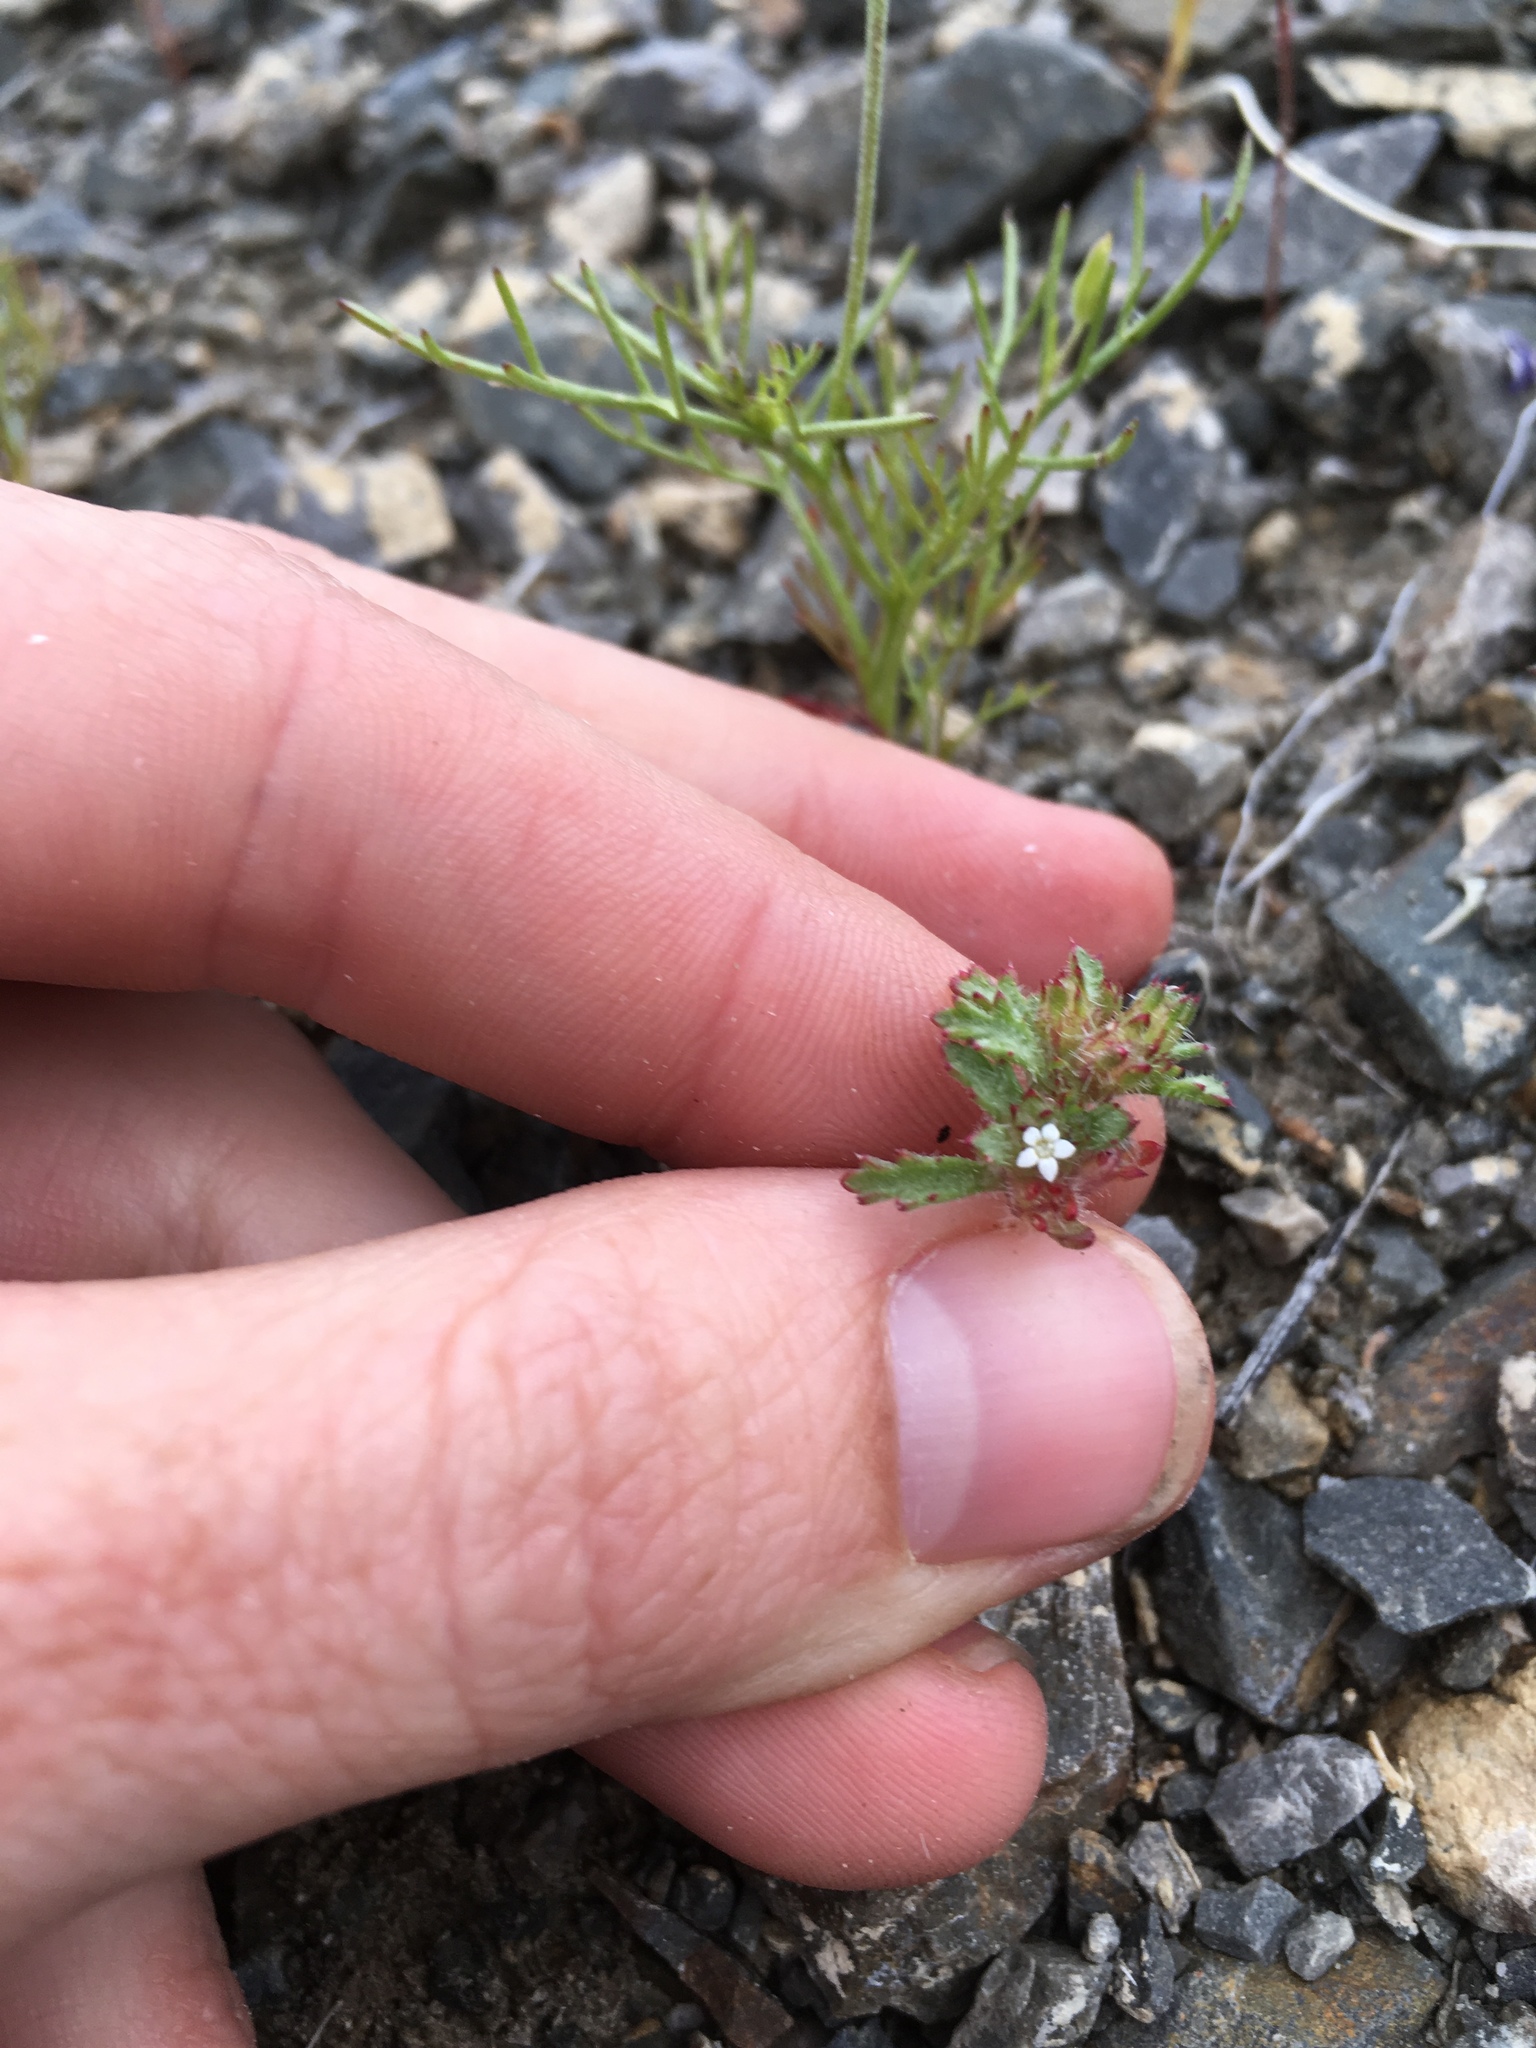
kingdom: Plantae
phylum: Tracheophyta
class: Magnoliopsida
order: Ericales
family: Polemoniaceae
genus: Ipomopsis
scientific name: Ipomopsis polycladon
